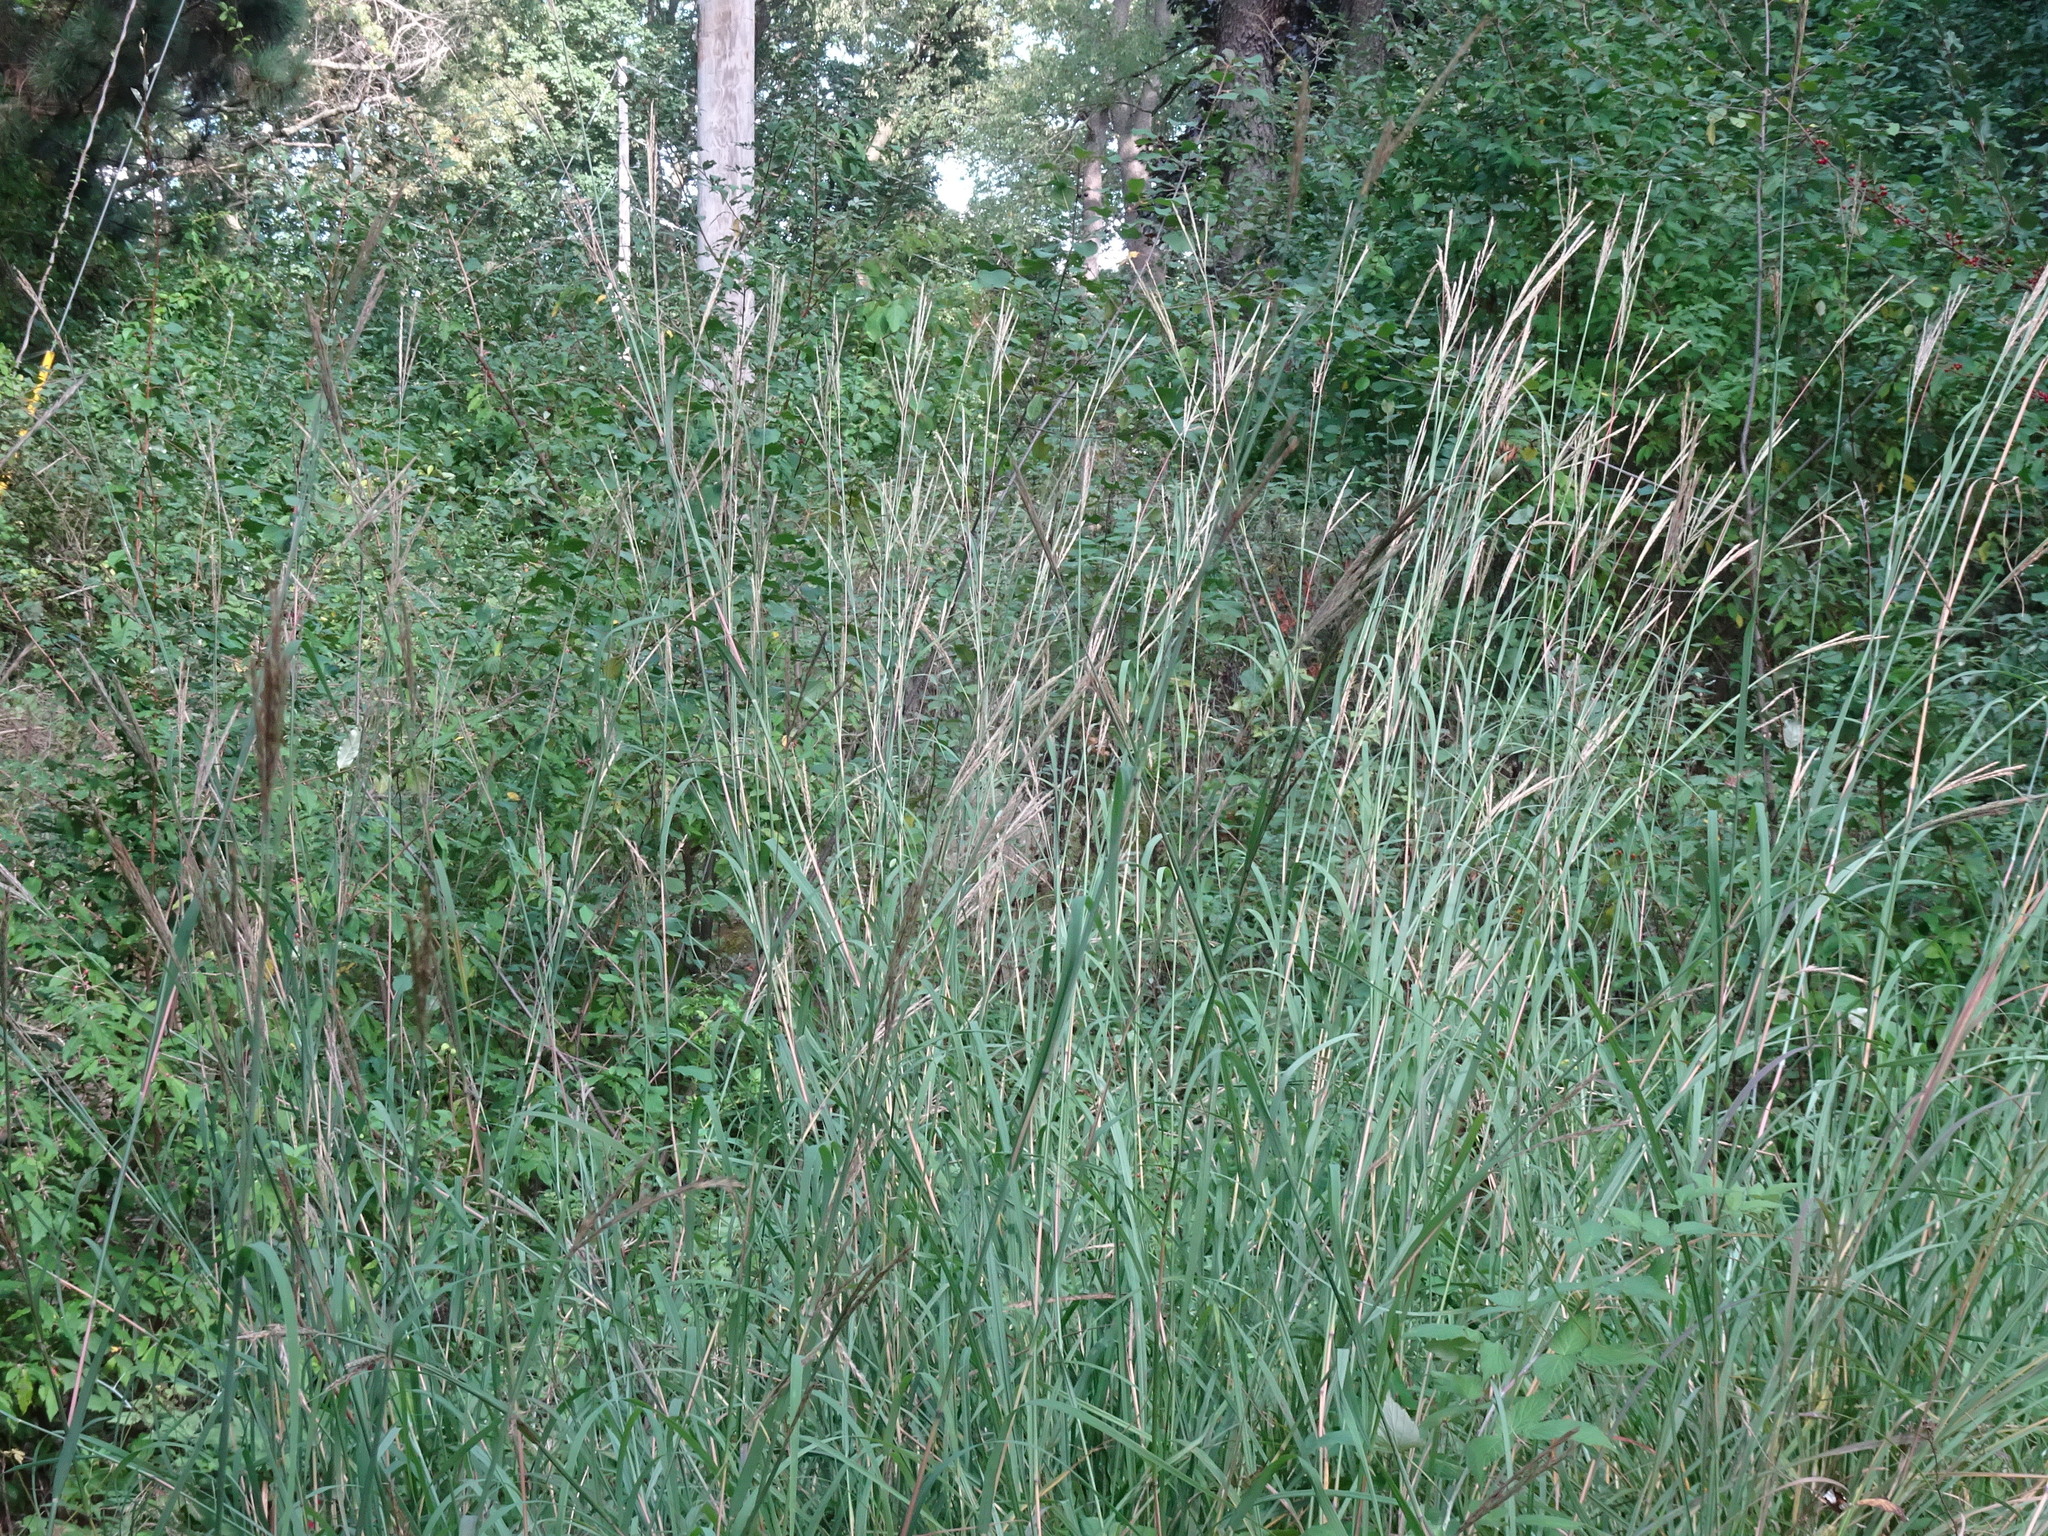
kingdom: Plantae
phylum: Tracheophyta
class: Liliopsida
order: Poales
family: Poaceae
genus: Andropogon
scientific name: Andropogon gerardi
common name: Big bluestem
